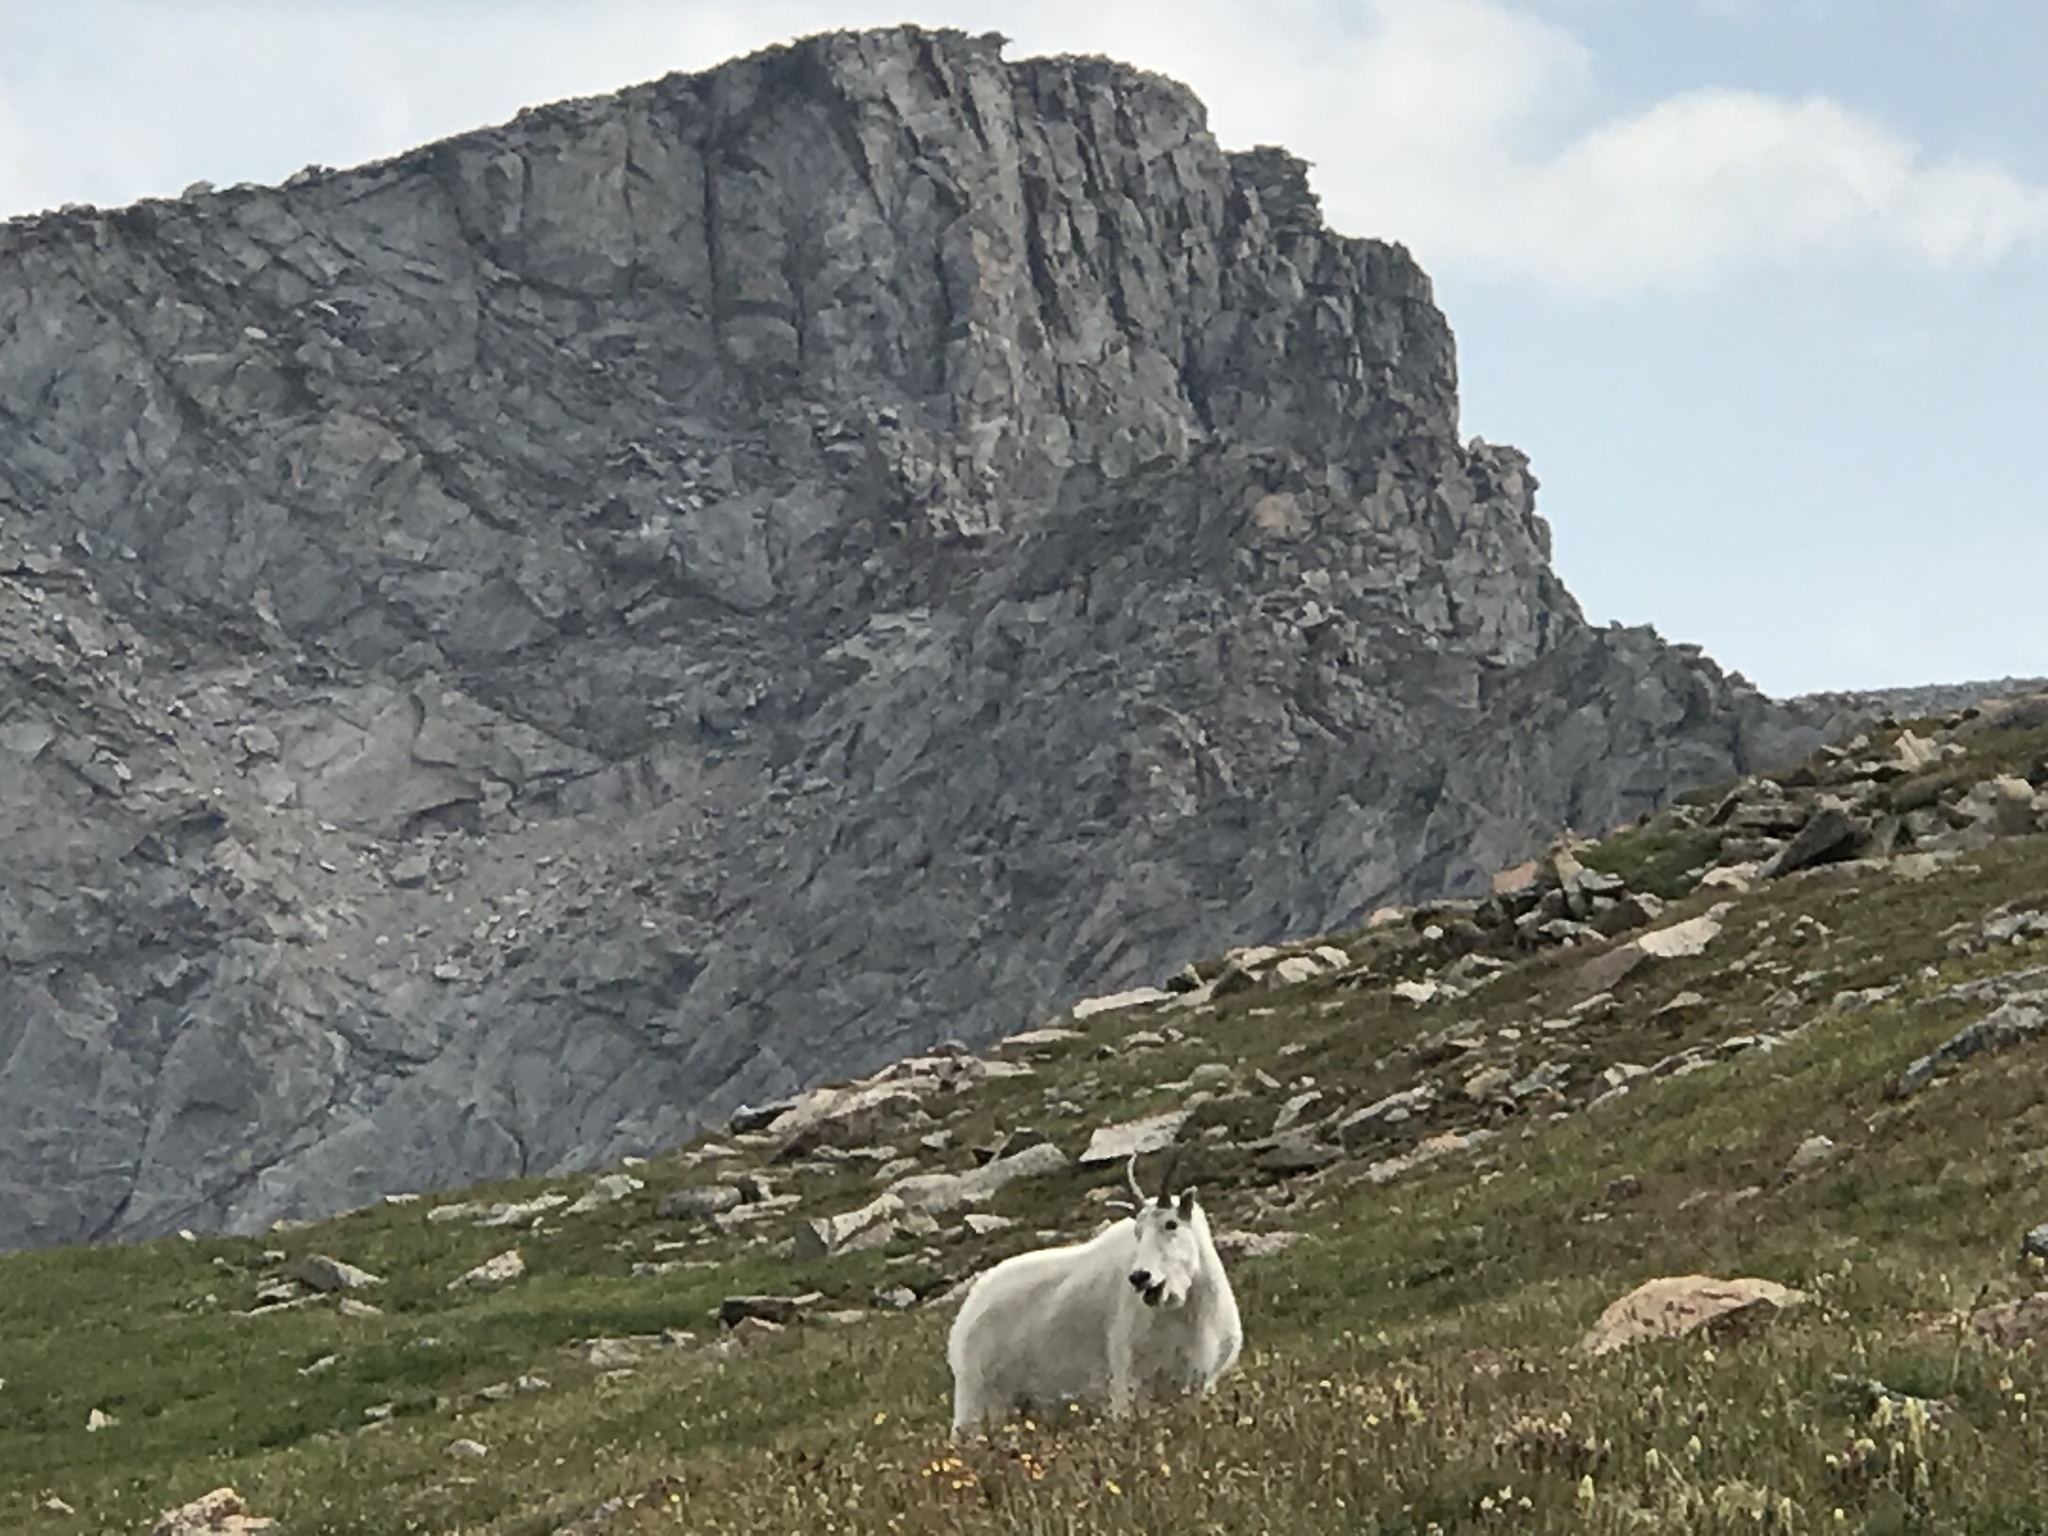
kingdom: Animalia
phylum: Chordata
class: Mammalia
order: Artiodactyla
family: Bovidae
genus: Oreamnos
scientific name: Oreamnos americanus
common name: Mountain goat
